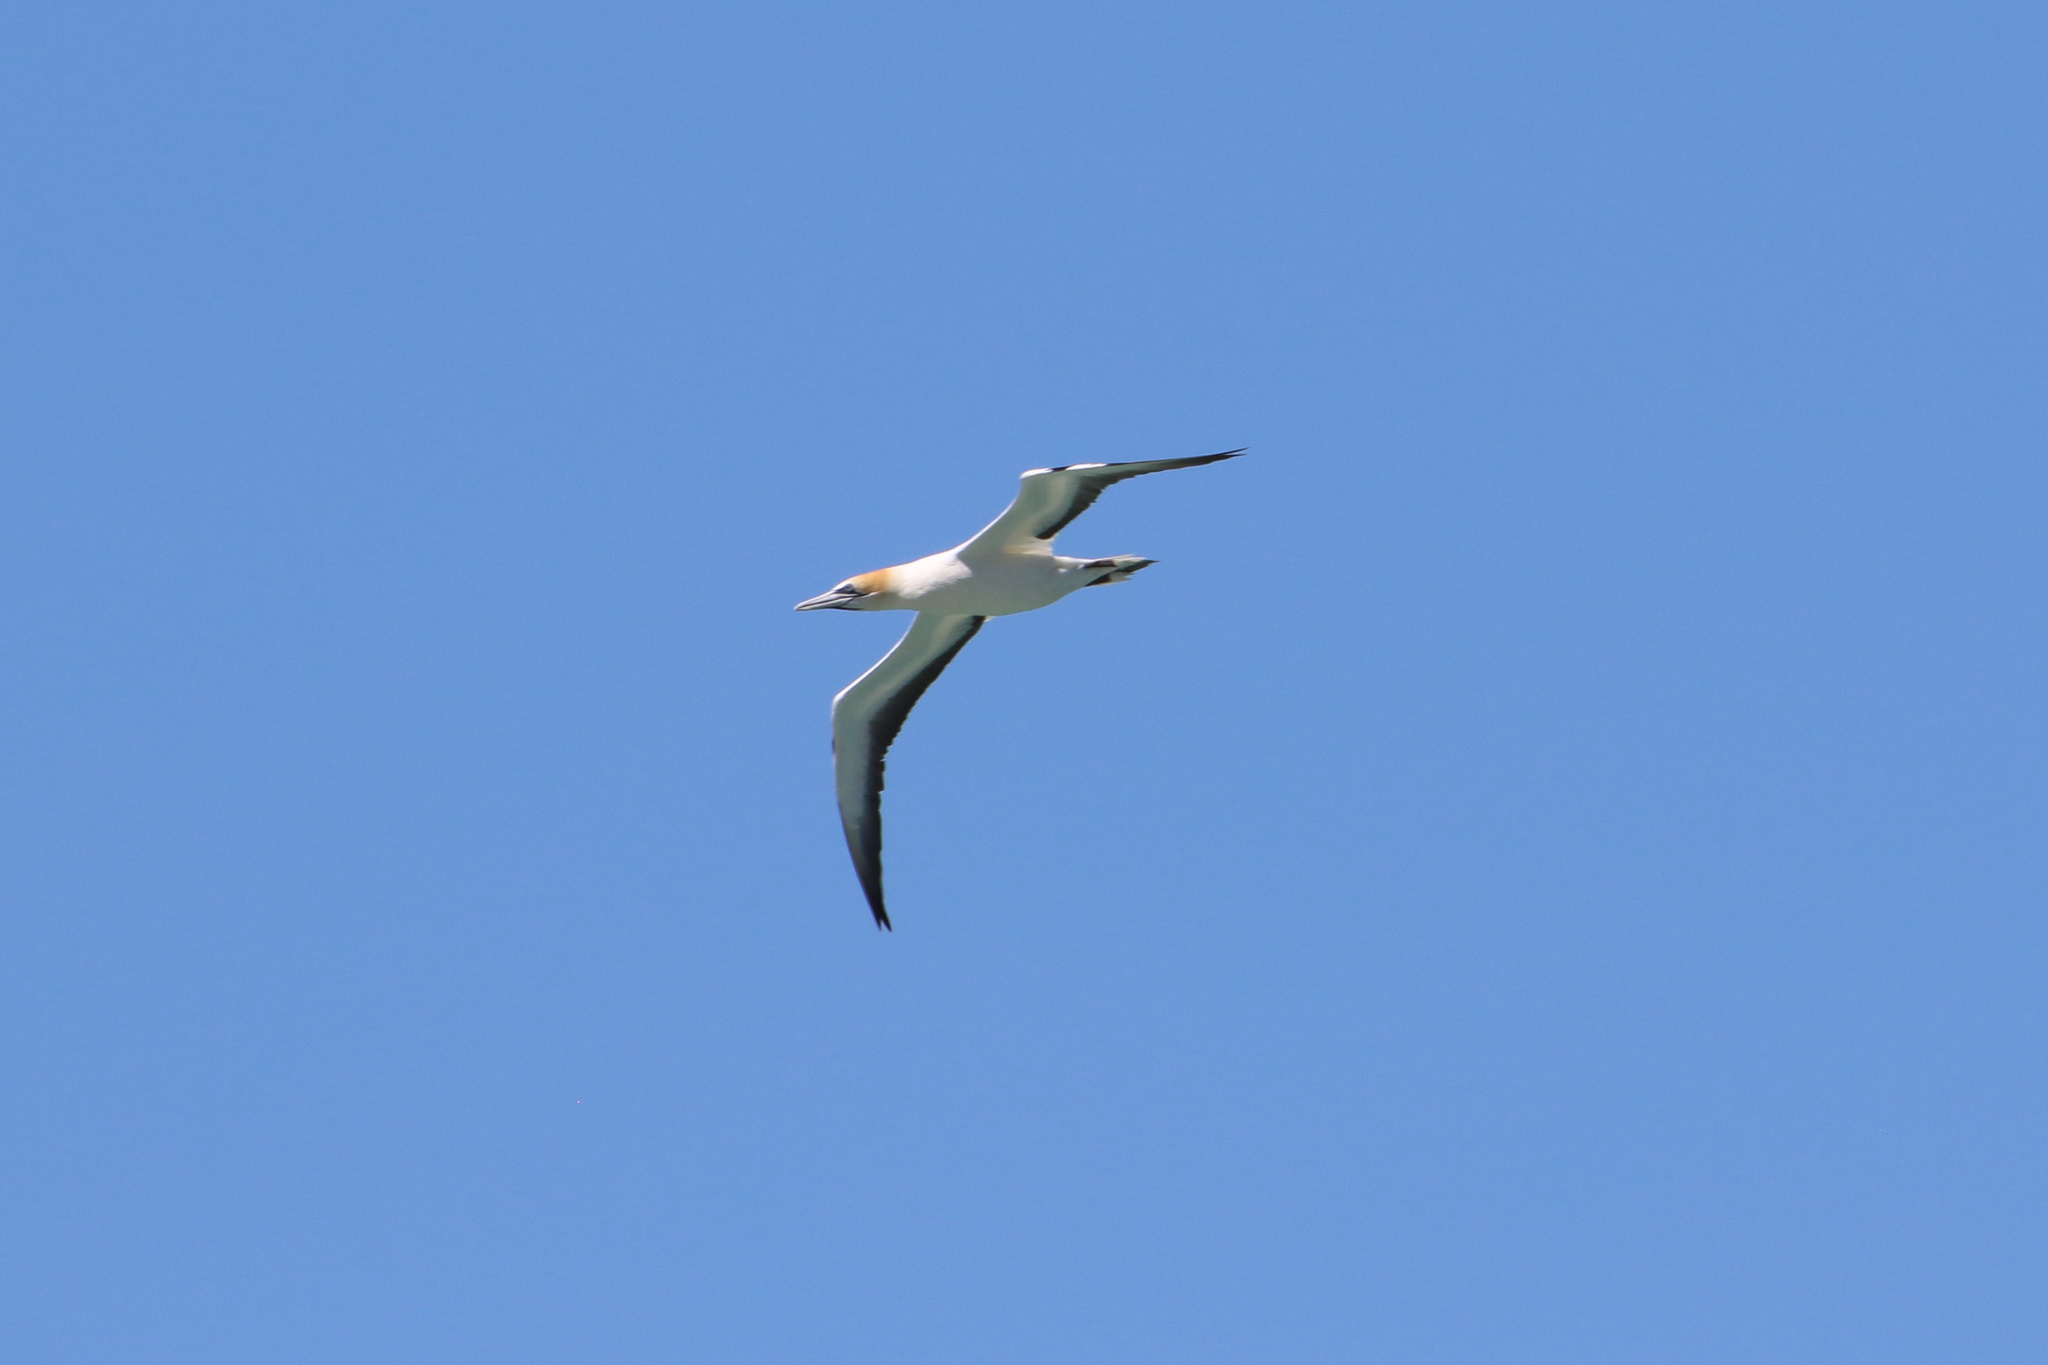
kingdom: Animalia
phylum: Chordata
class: Aves
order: Suliformes
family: Sulidae
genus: Morus
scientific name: Morus serrator
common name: Australasian gannet
